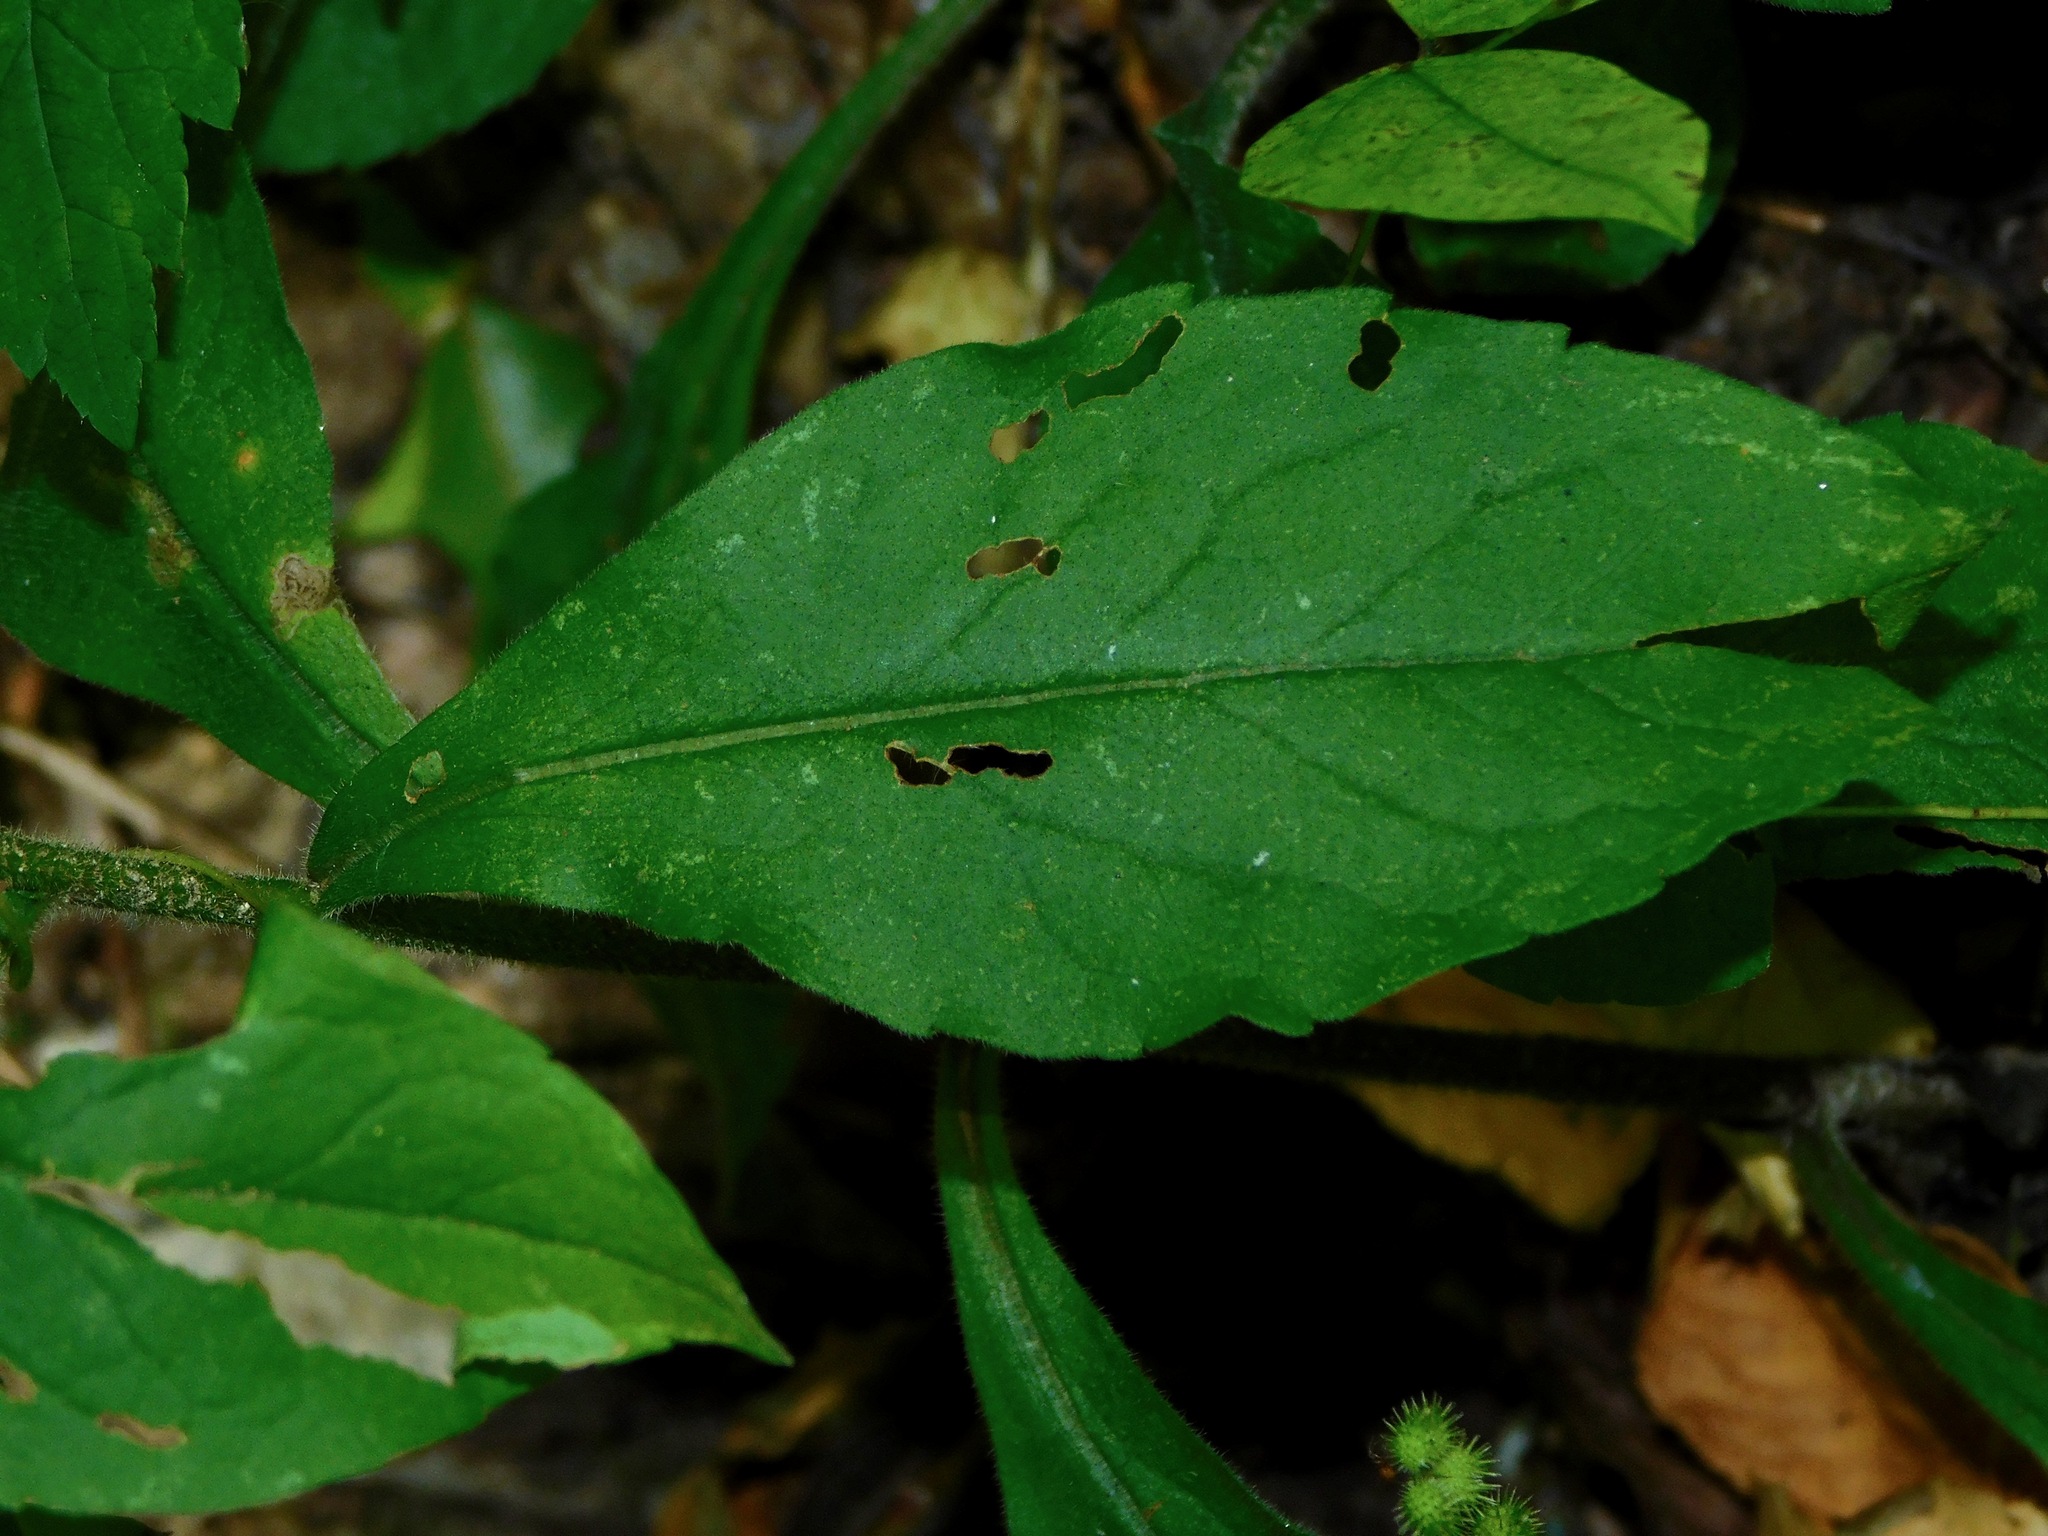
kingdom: Plantae
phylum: Tracheophyta
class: Magnoliopsida
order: Asterales
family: Asteraceae
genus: Solidago
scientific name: Solidago bicolor
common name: Silverrod
